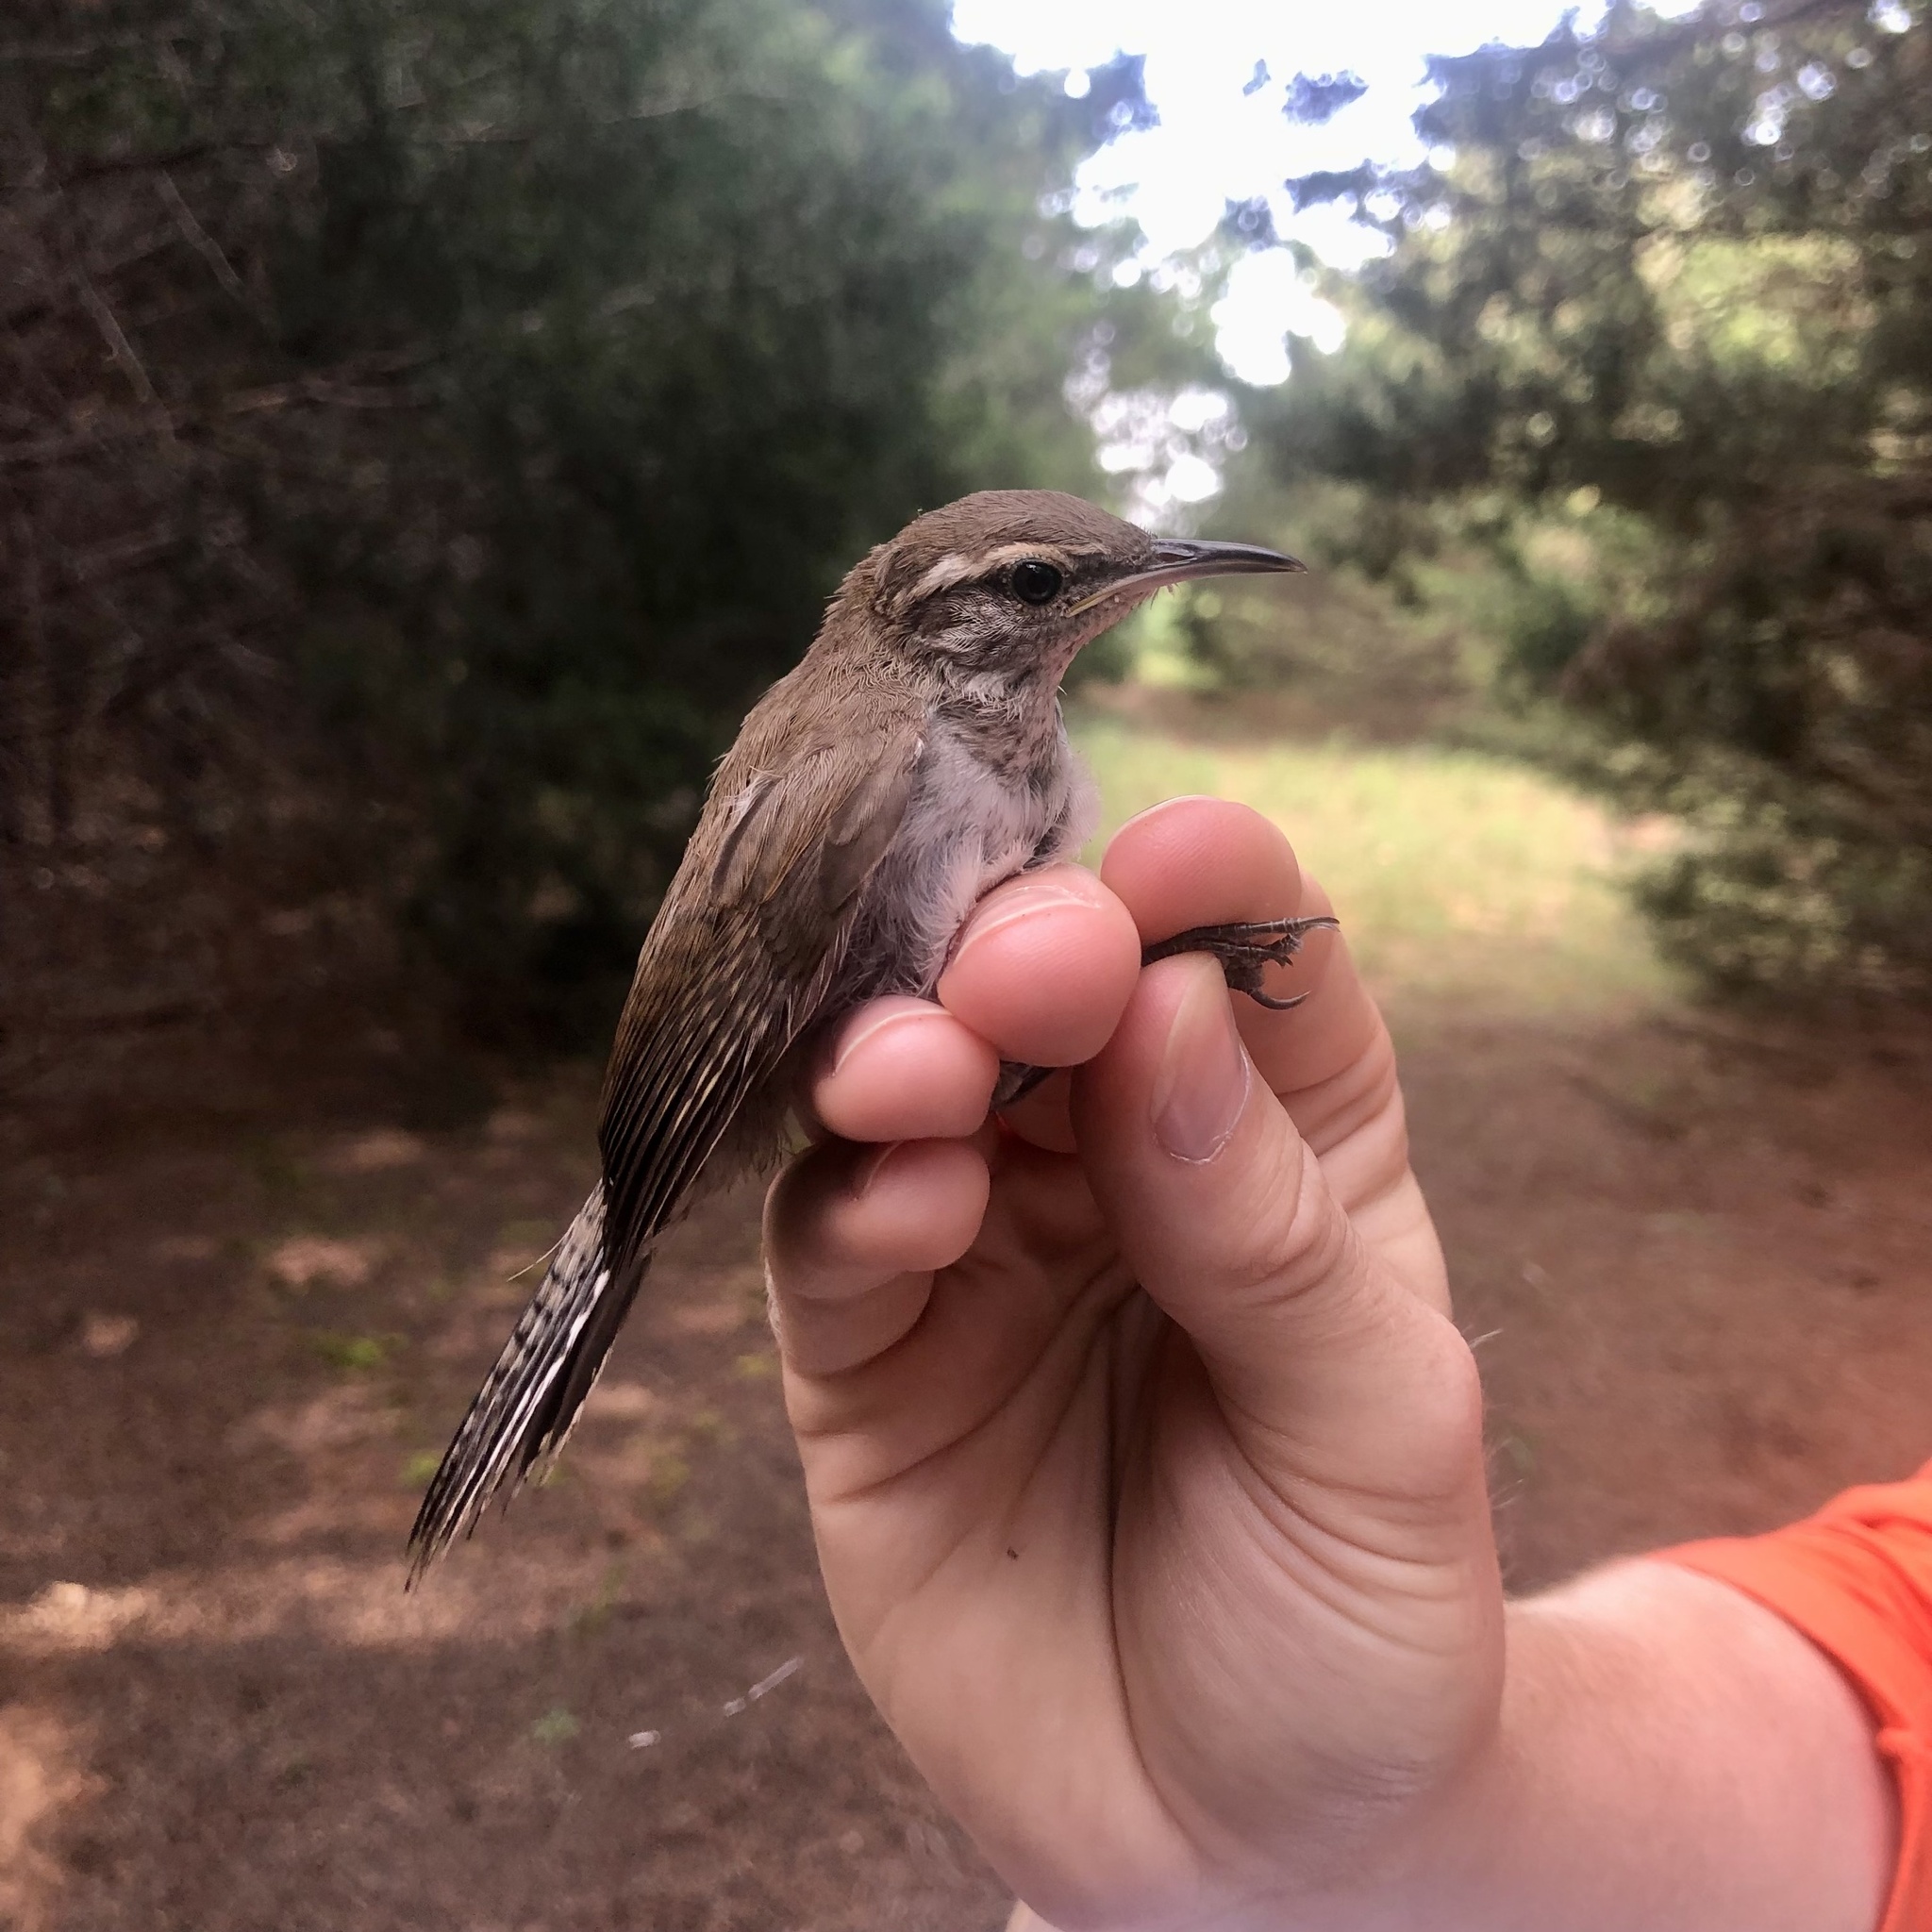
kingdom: Animalia
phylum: Chordata
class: Aves
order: Passeriformes
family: Troglodytidae
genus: Thryomanes
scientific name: Thryomanes bewickii
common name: Bewick's wren
